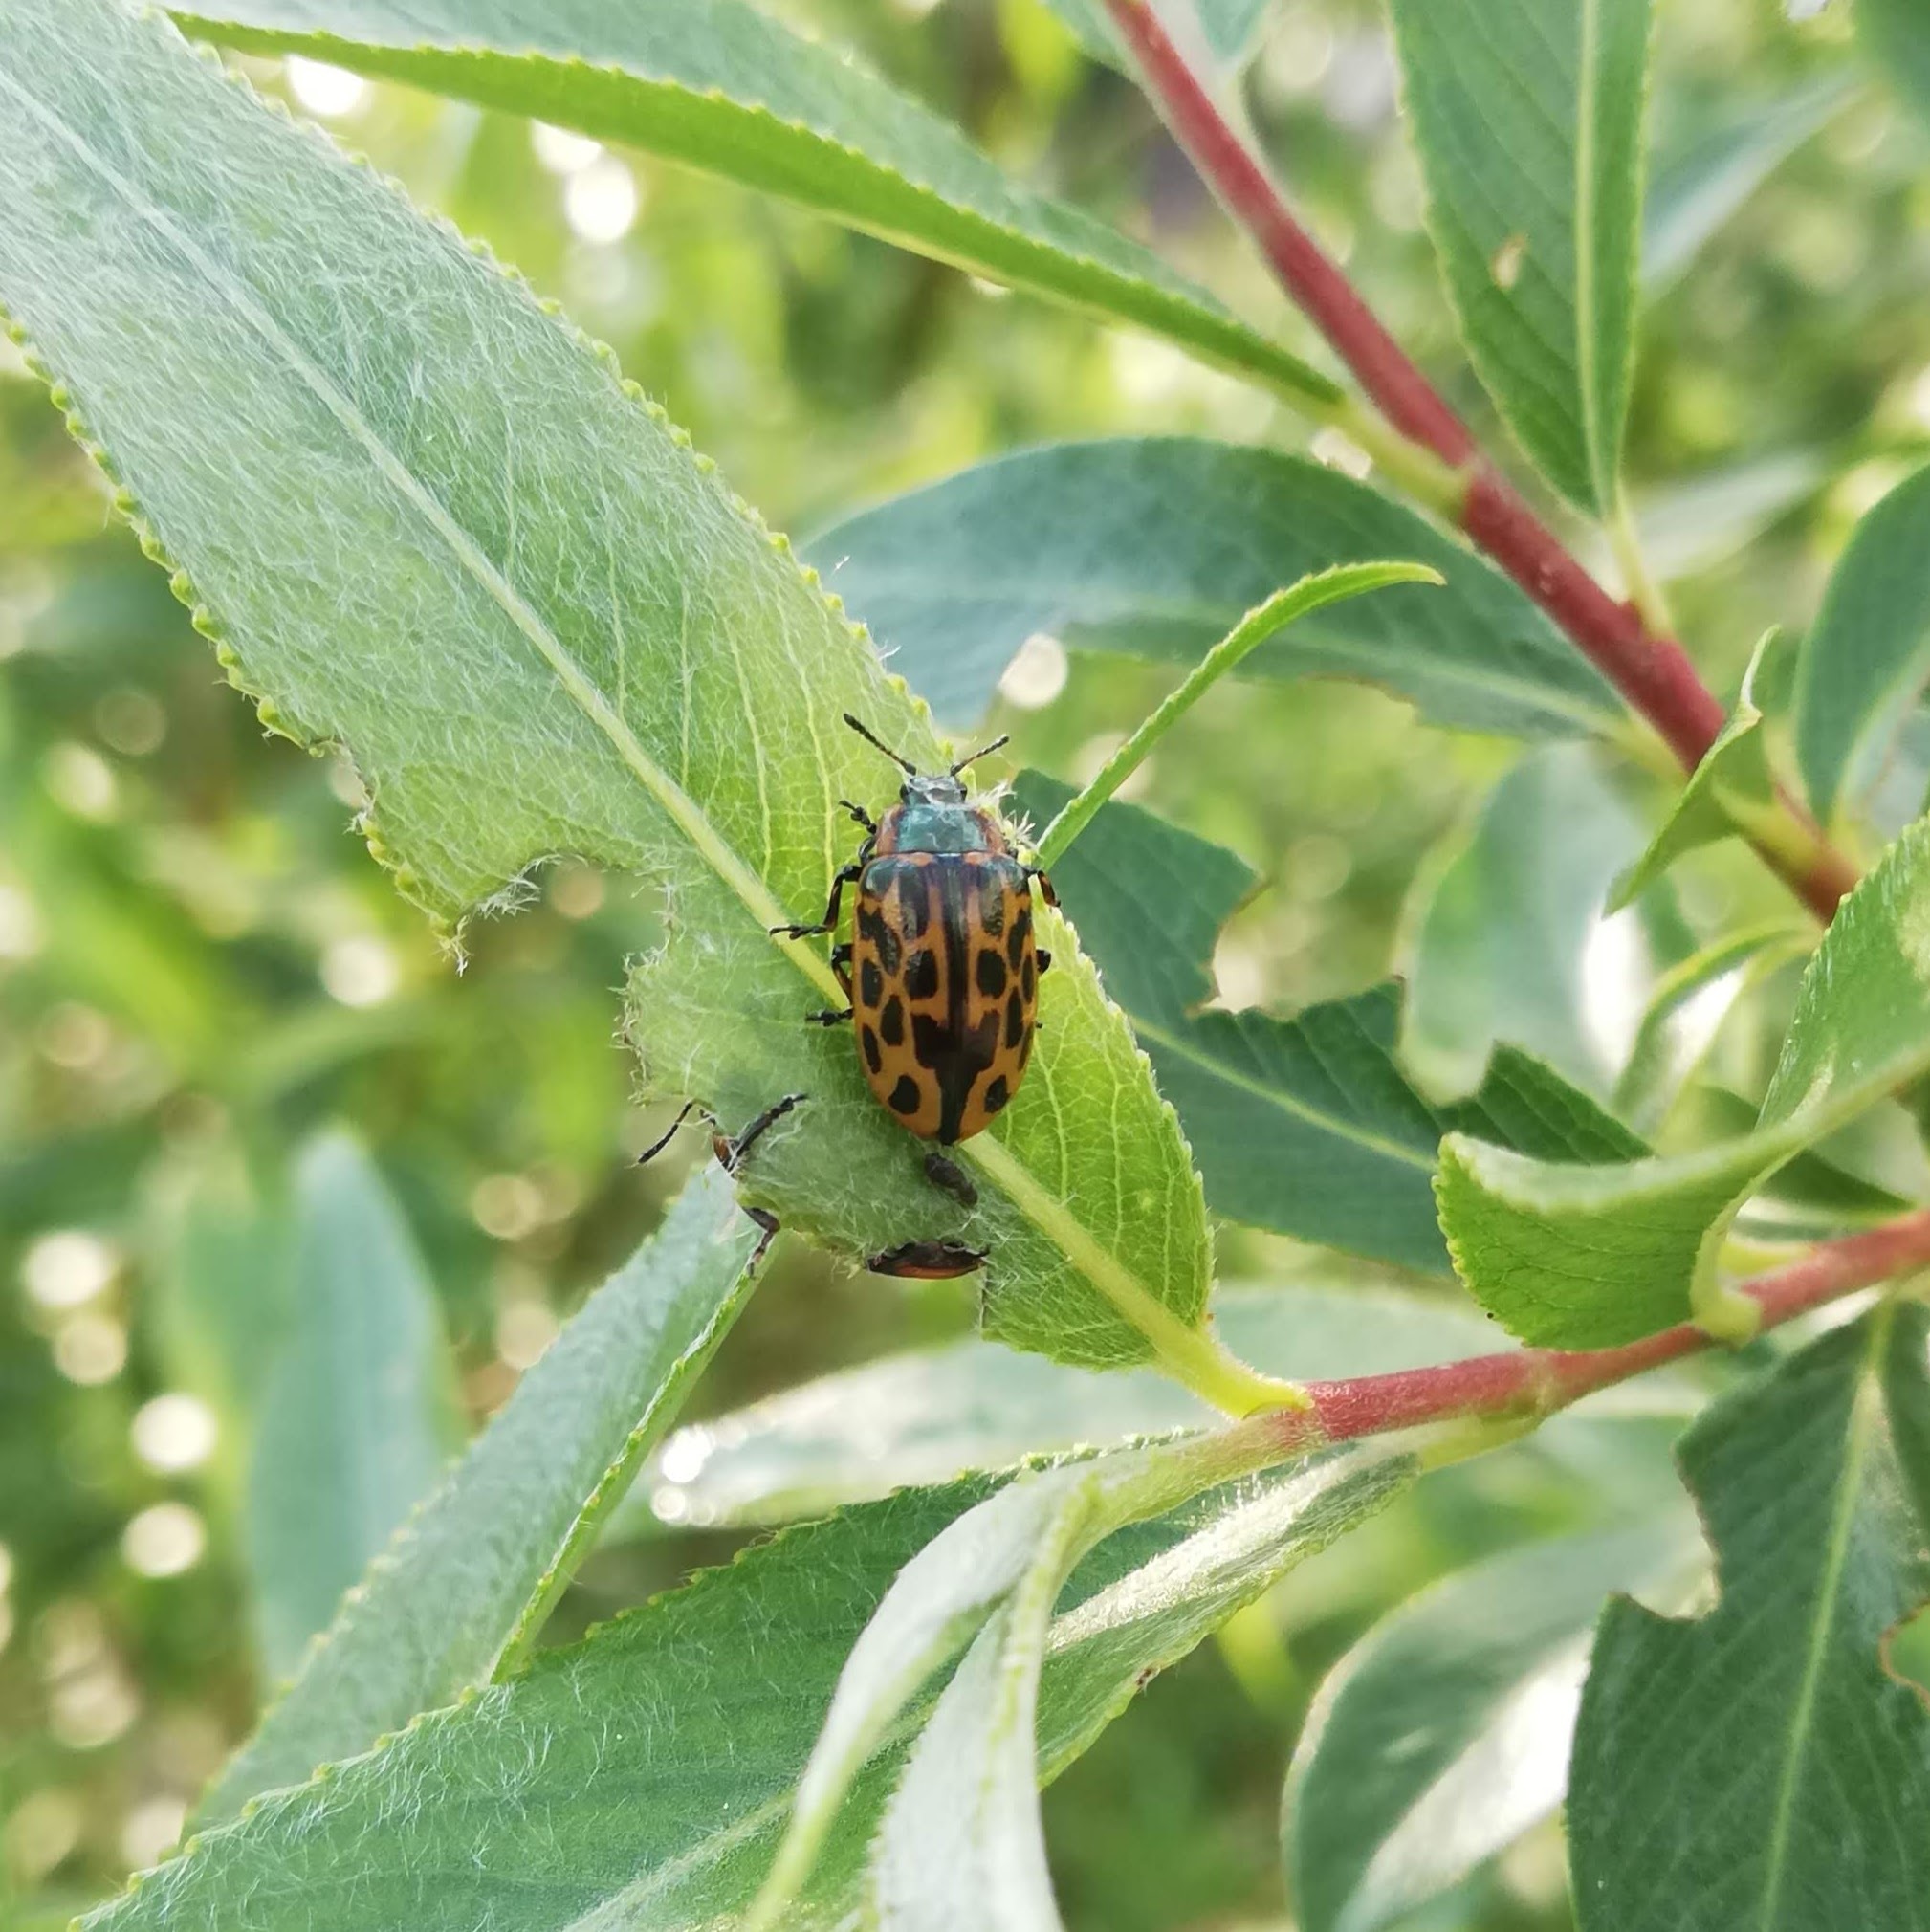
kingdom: Animalia
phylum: Arthropoda
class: Insecta
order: Coleoptera
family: Chrysomelidae
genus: Chrysomela
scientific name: Chrysomela vigintipunctata
